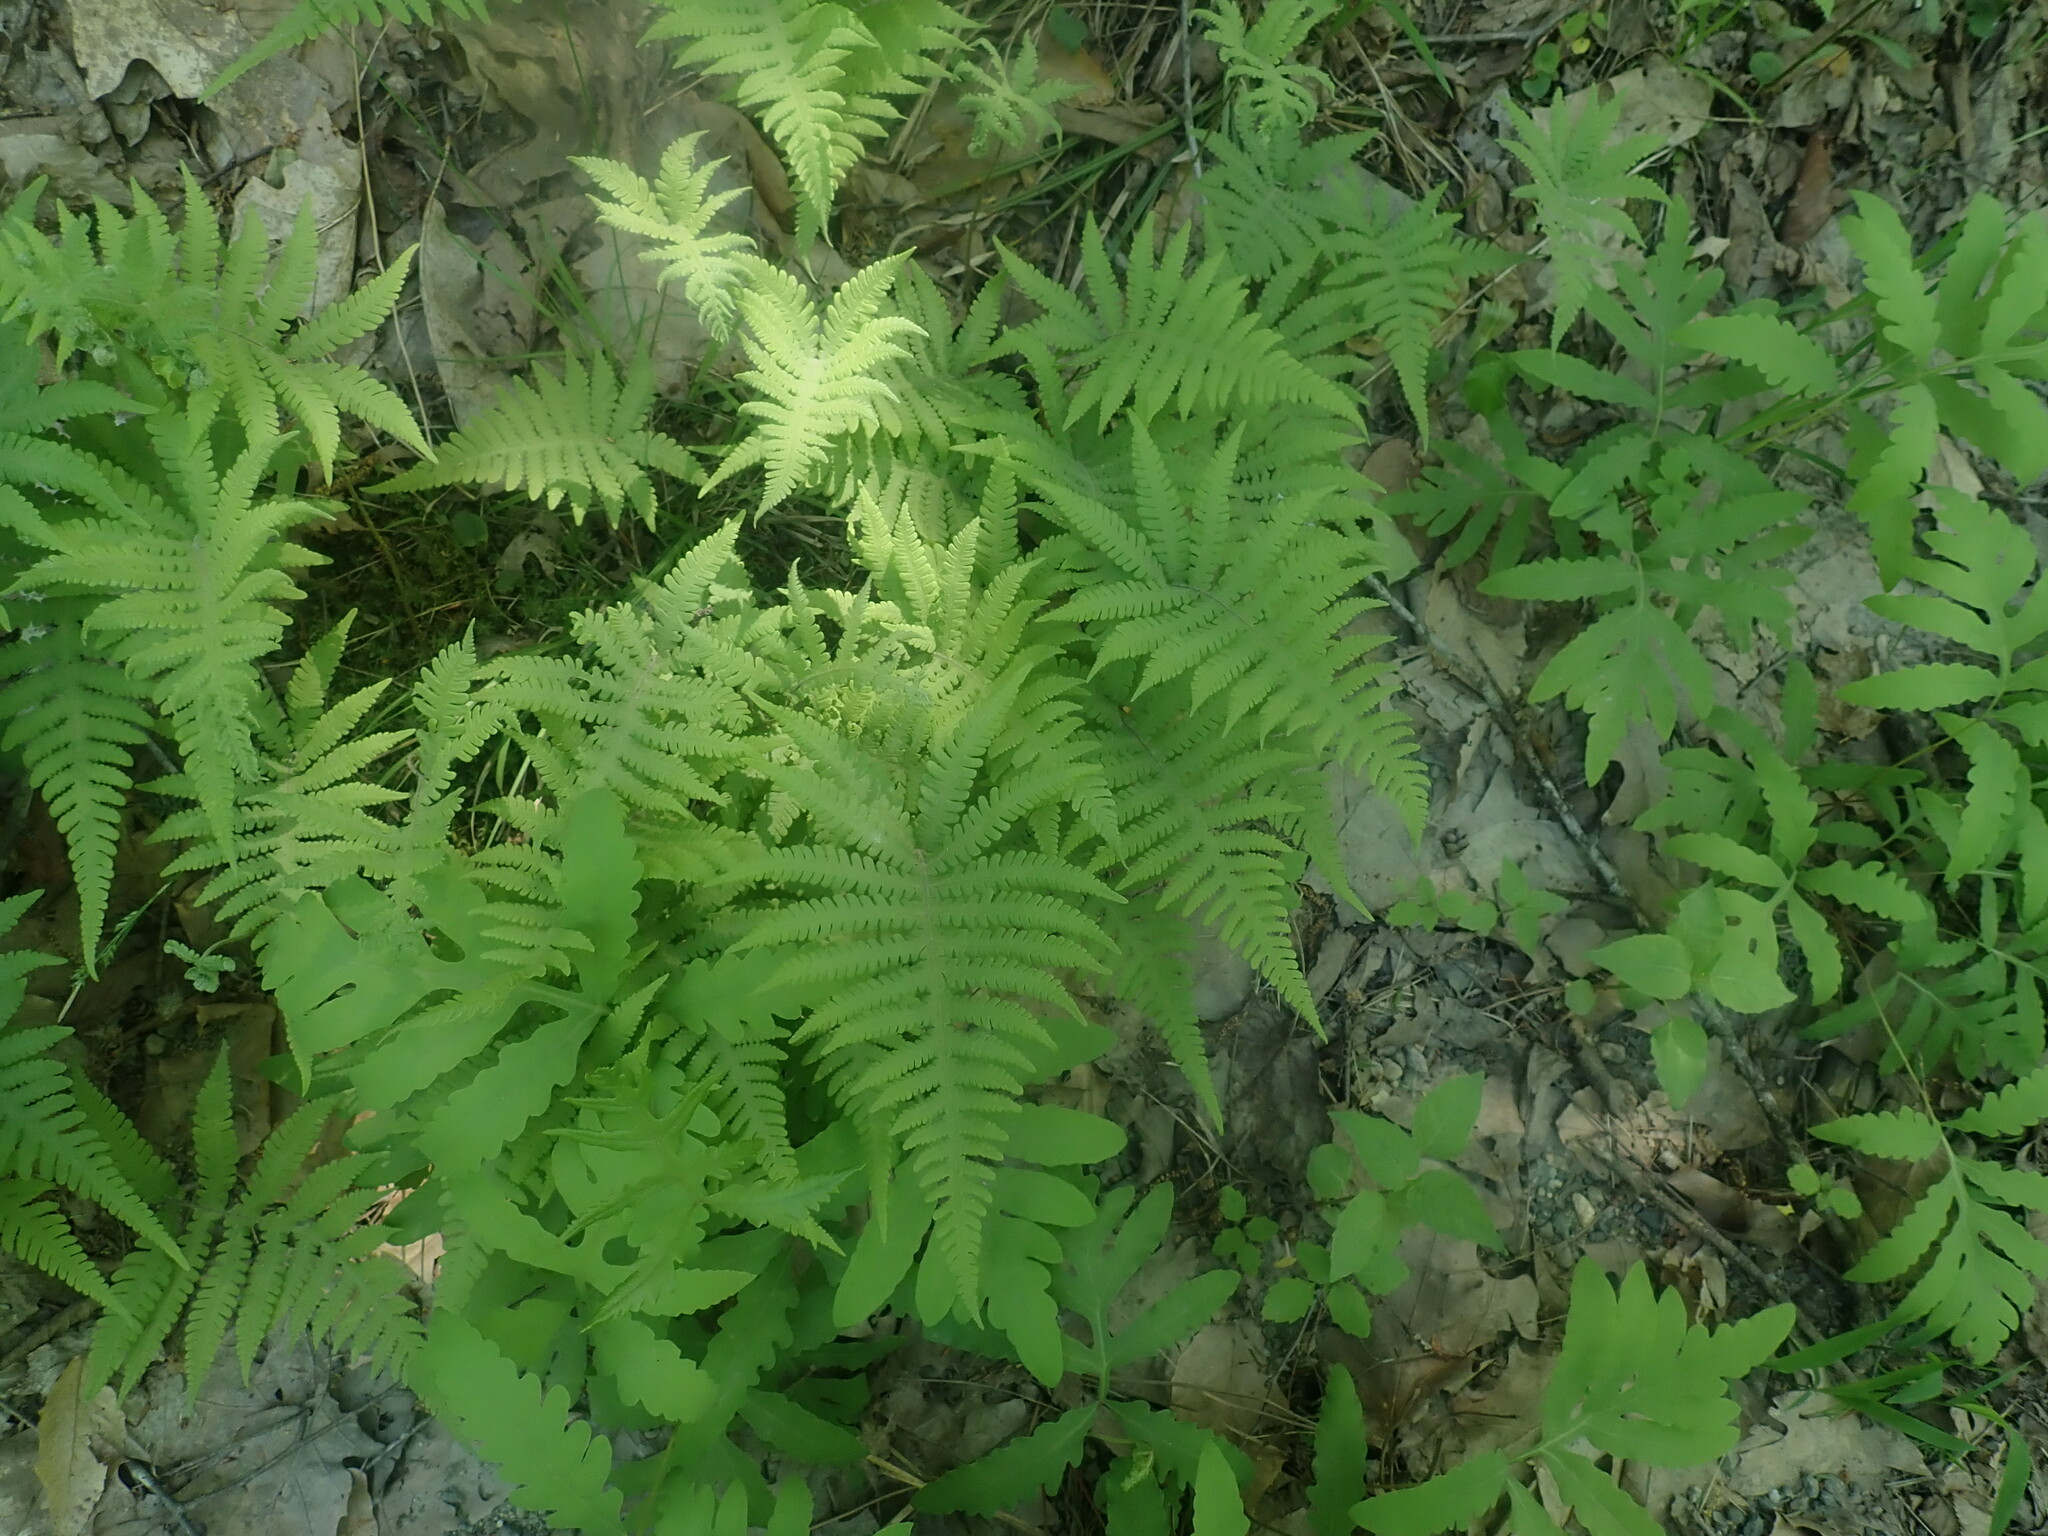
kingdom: Plantae
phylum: Tracheophyta
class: Polypodiopsida
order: Polypodiales
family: Thelypteridaceae
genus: Phegopteris
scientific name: Phegopteris connectilis
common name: Beech fern
